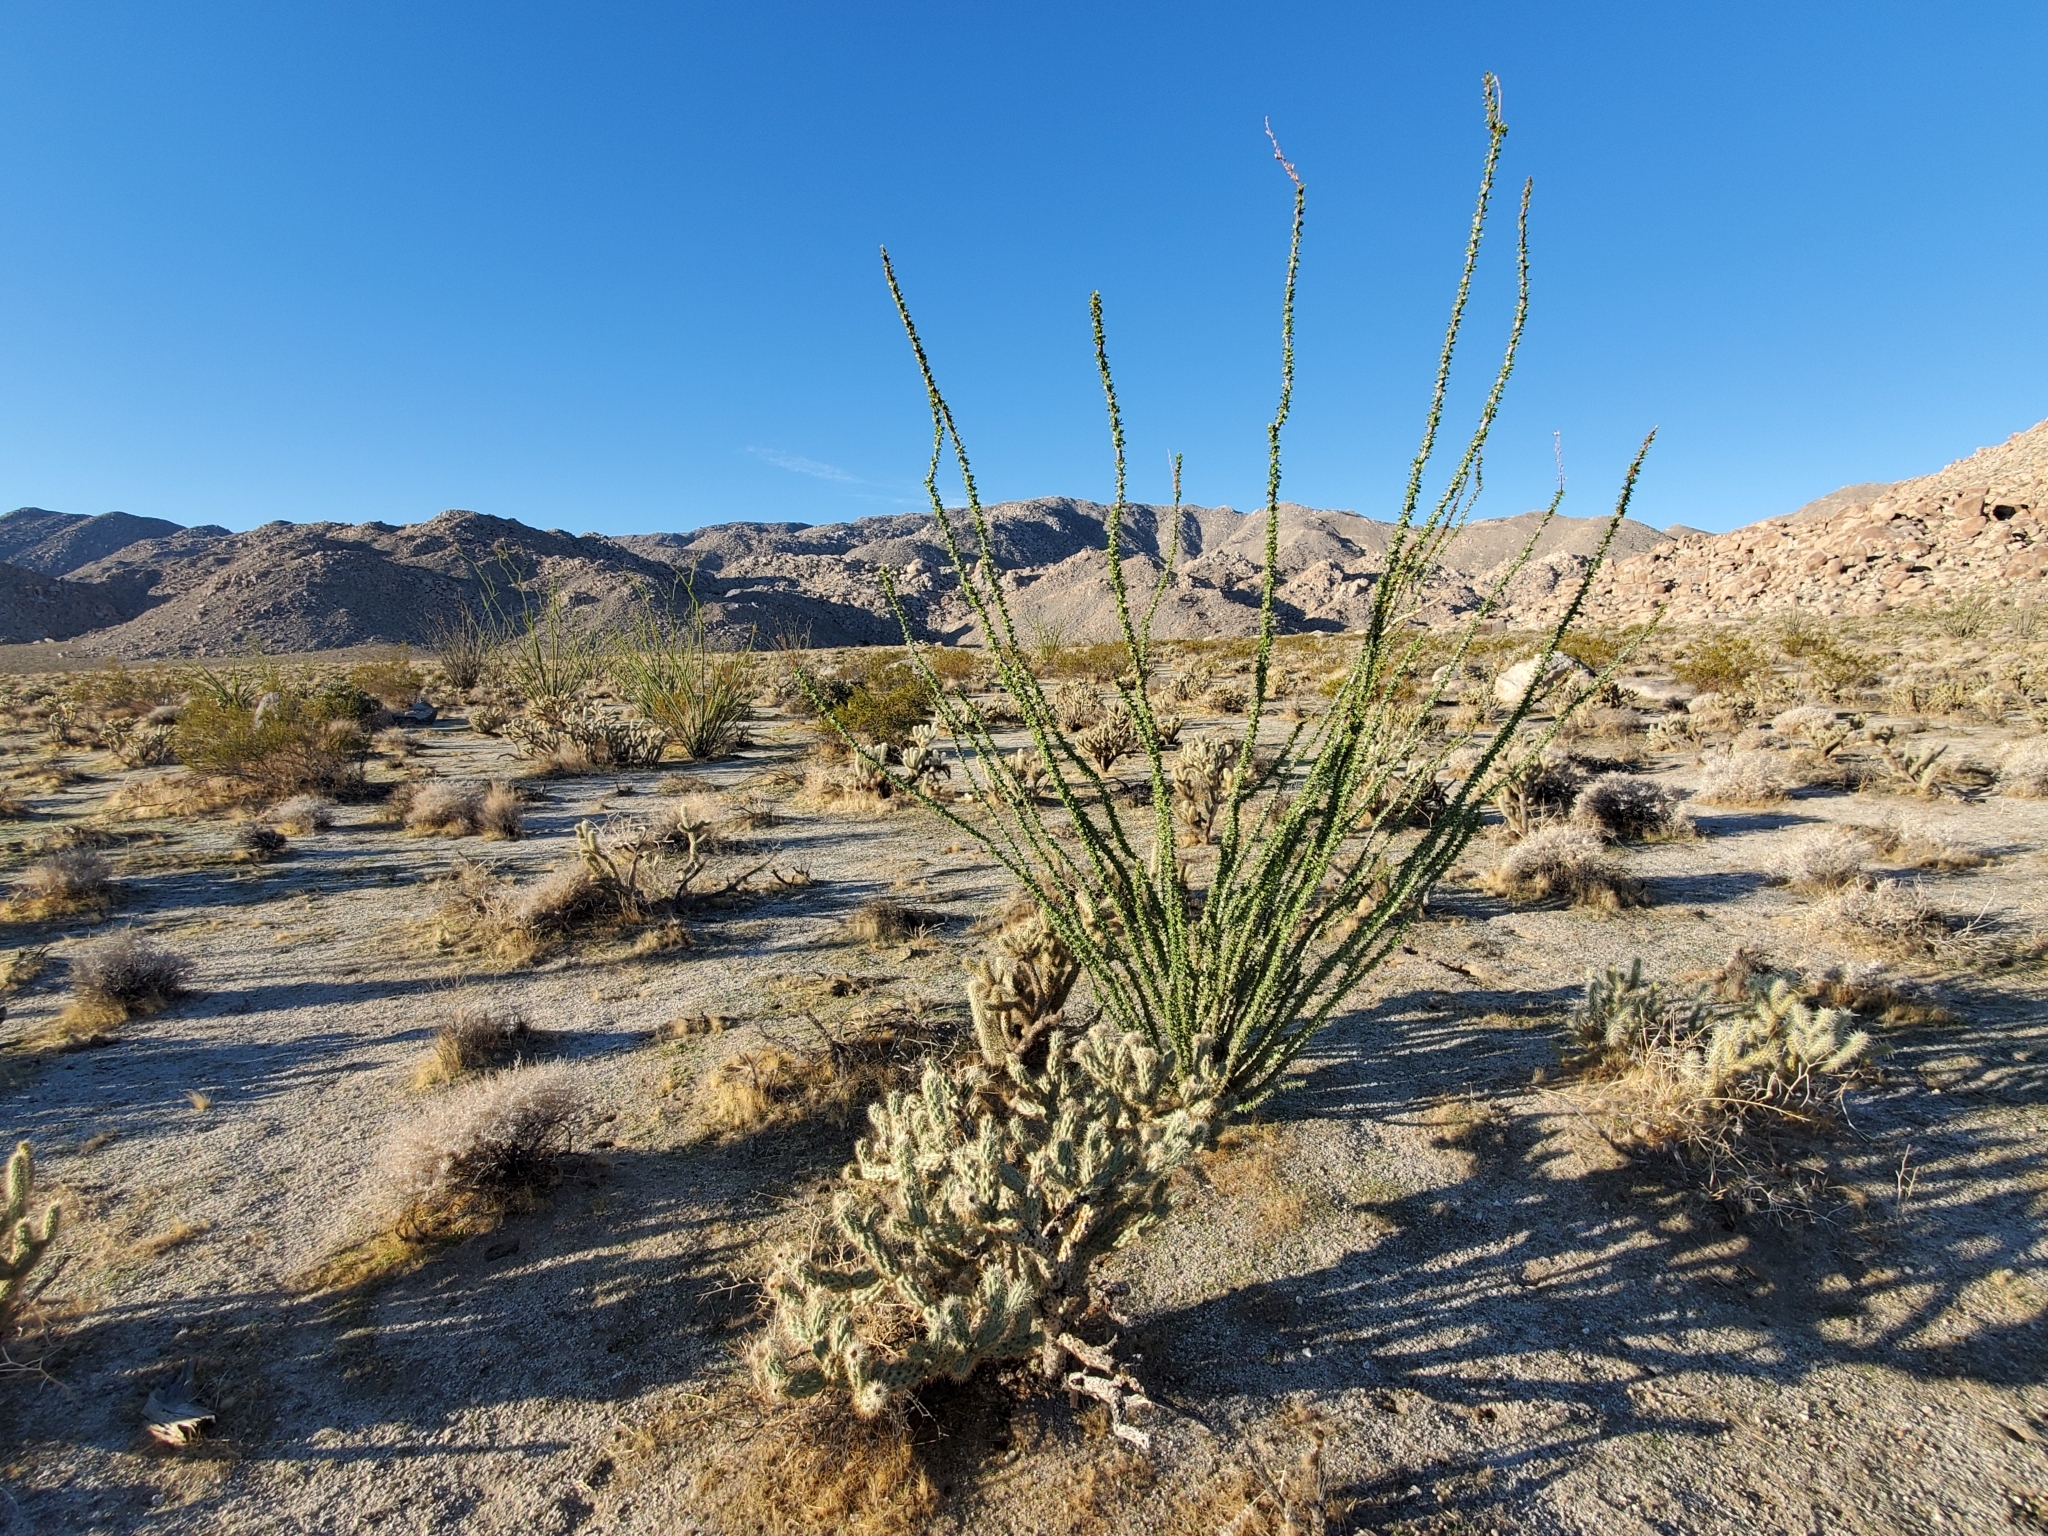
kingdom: Plantae
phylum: Tracheophyta
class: Magnoliopsida
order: Ericales
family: Fouquieriaceae
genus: Fouquieria
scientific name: Fouquieria splendens
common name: Vine-cactus
